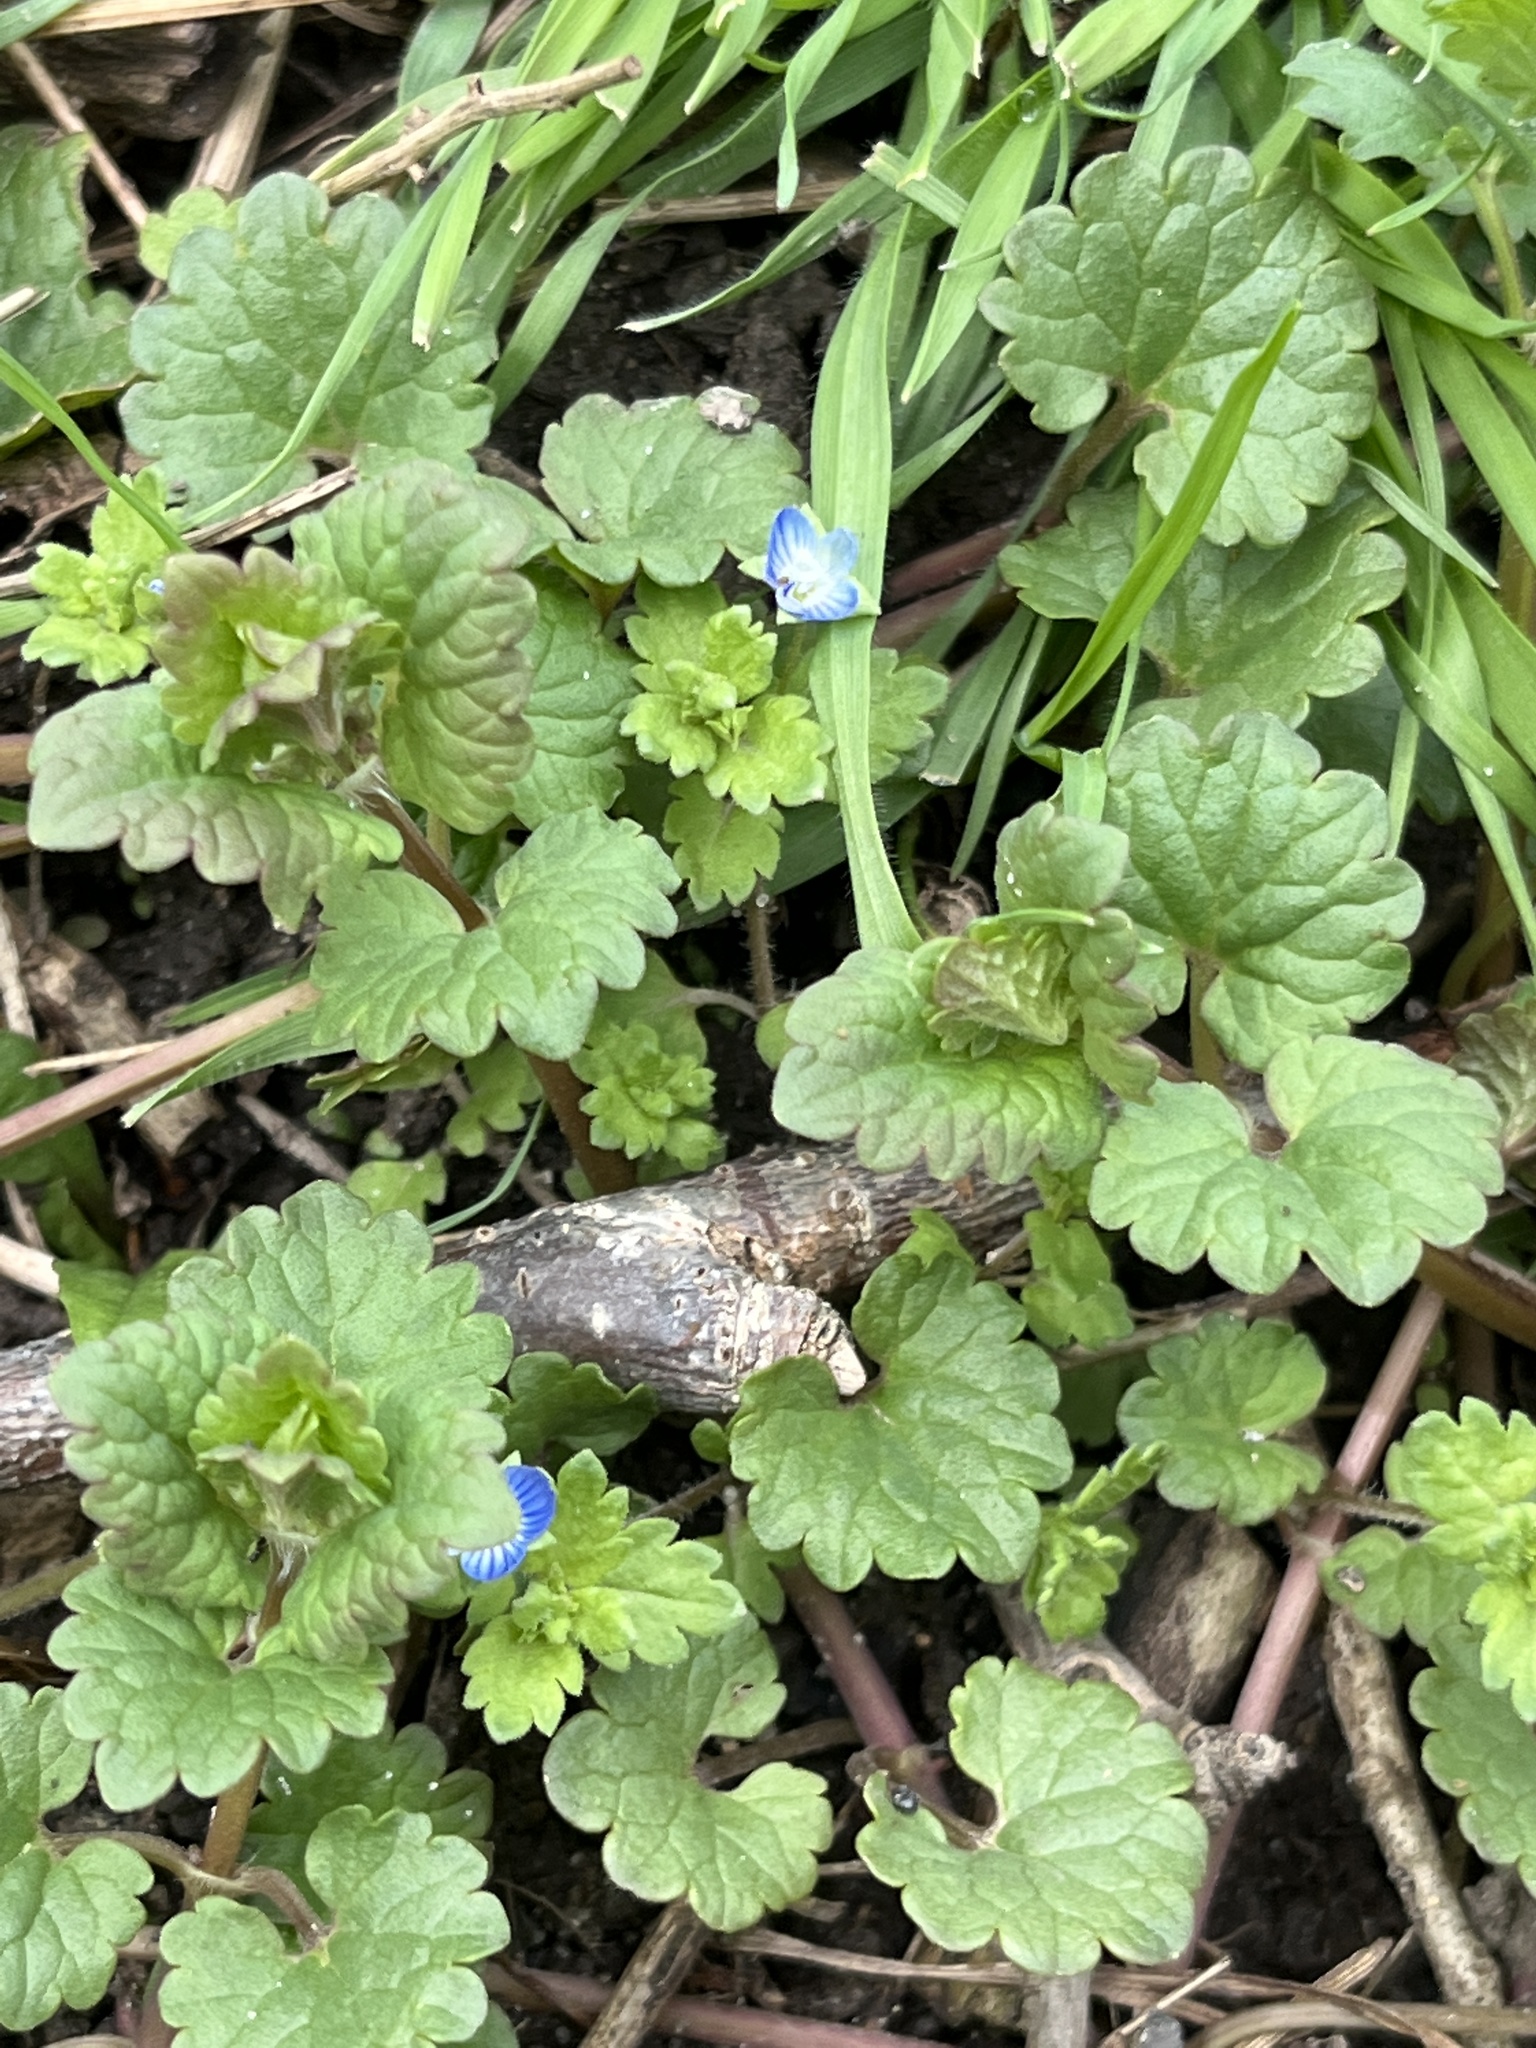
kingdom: Plantae
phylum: Tracheophyta
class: Magnoliopsida
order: Lamiales
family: Plantaginaceae
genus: Veronica
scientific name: Veronica polita
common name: Grey field-speedwell
